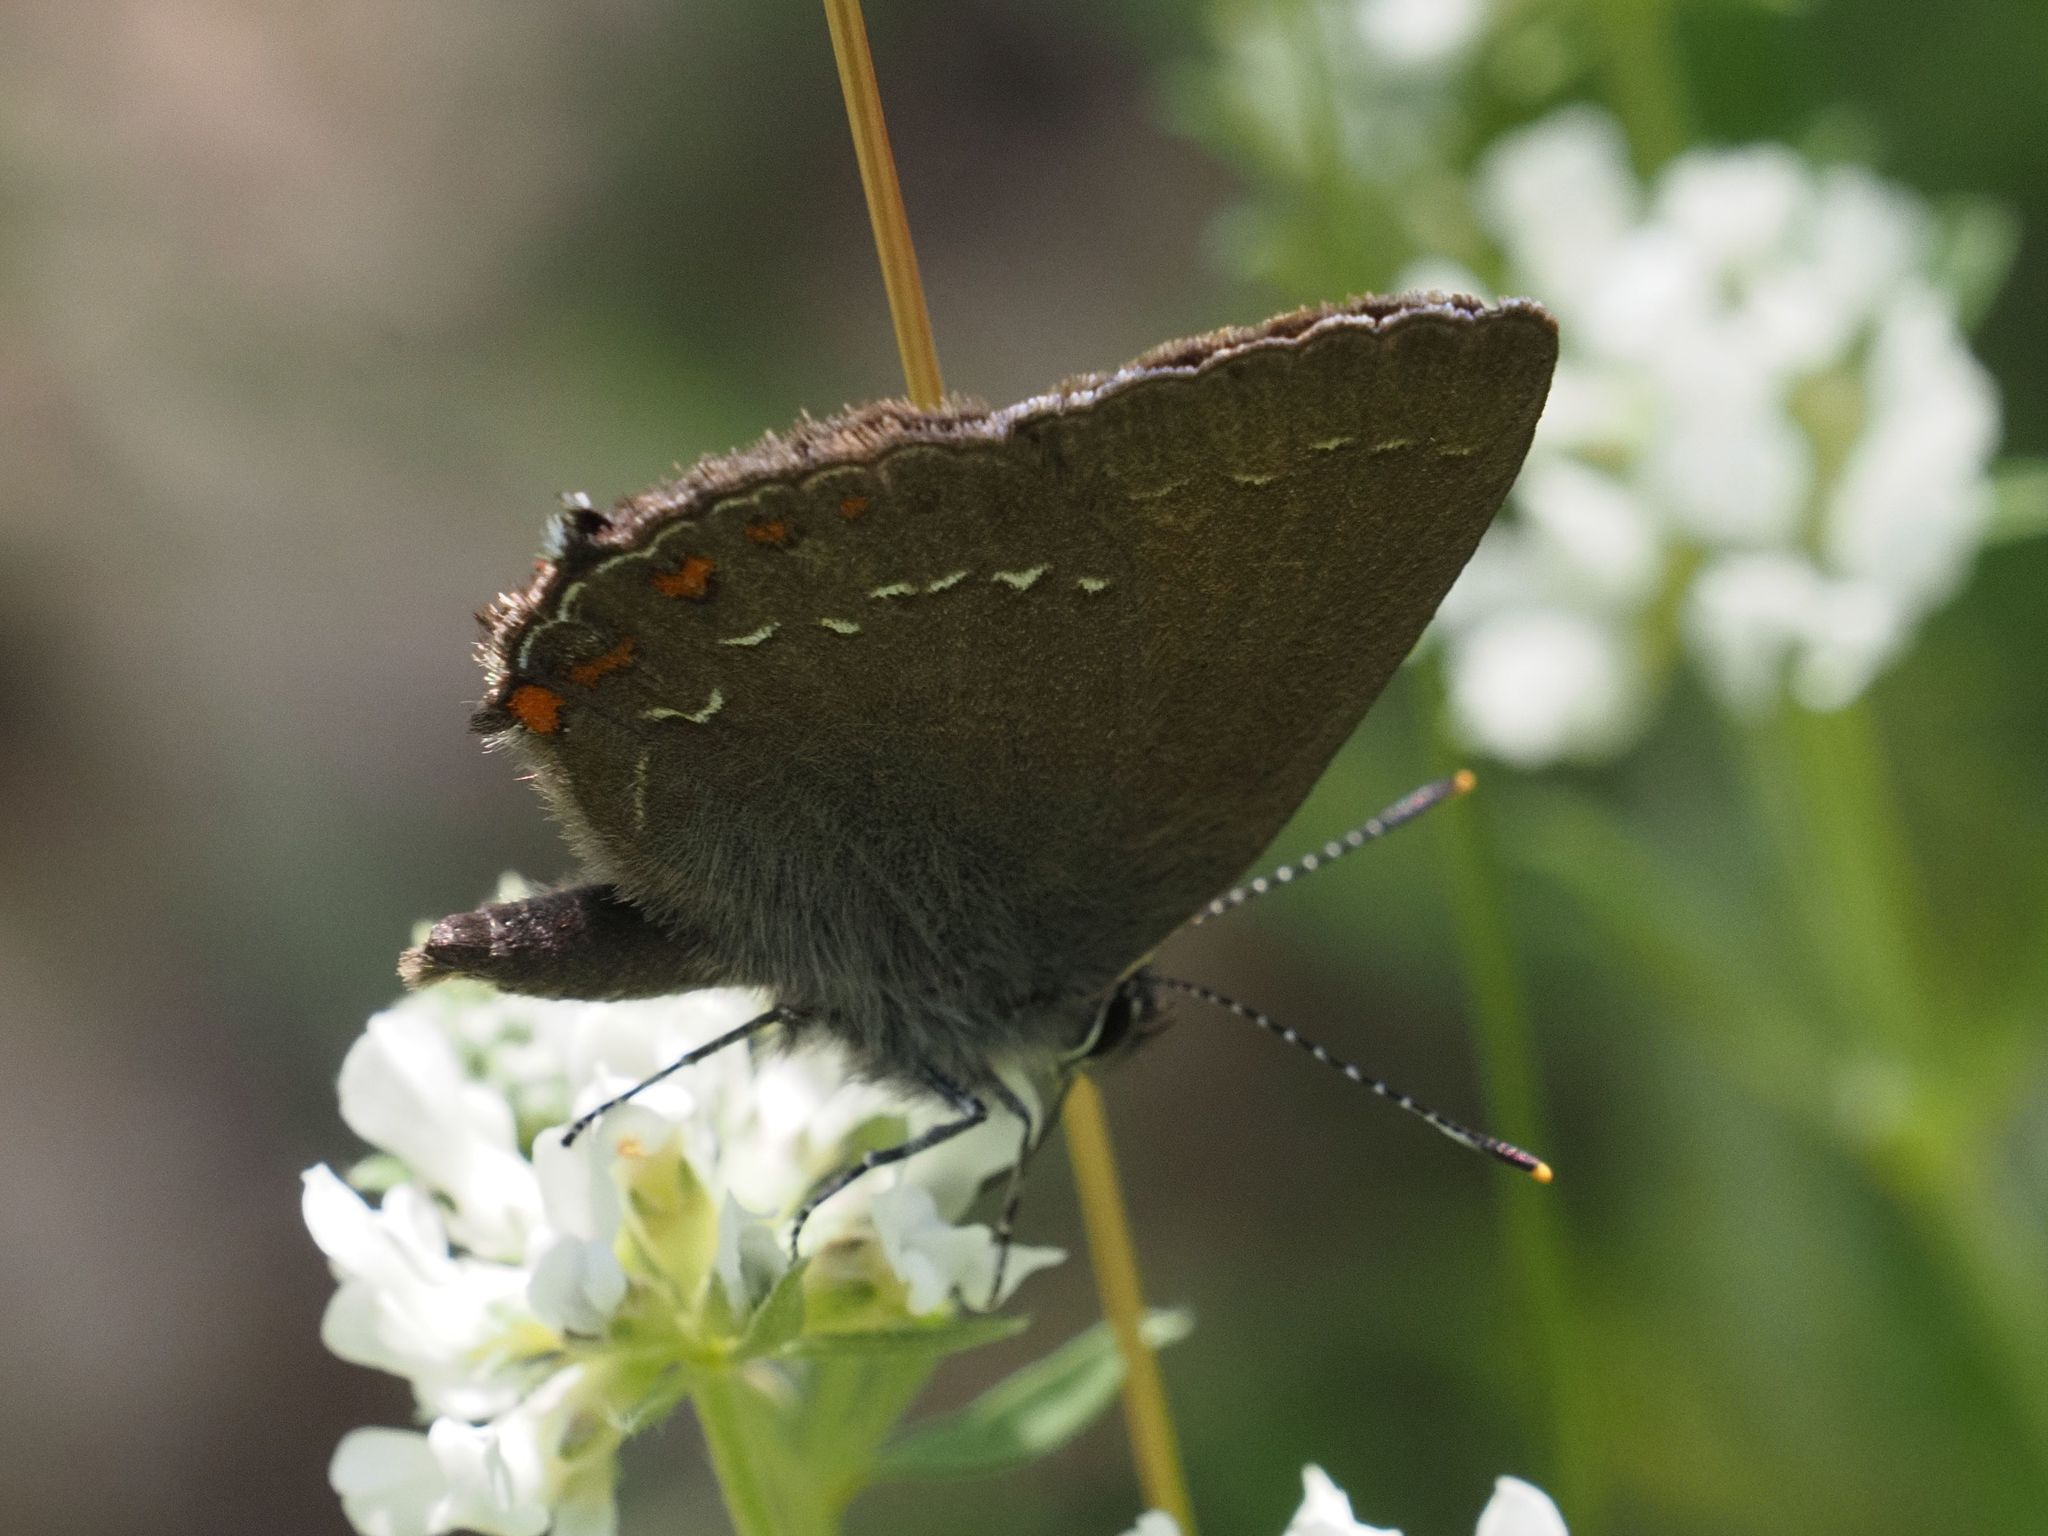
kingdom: Animalia
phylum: Arthropoda
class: Insecta
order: Lepidoptera
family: Lycaenidae
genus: Nordmannia
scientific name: Nordmannia ilicis
